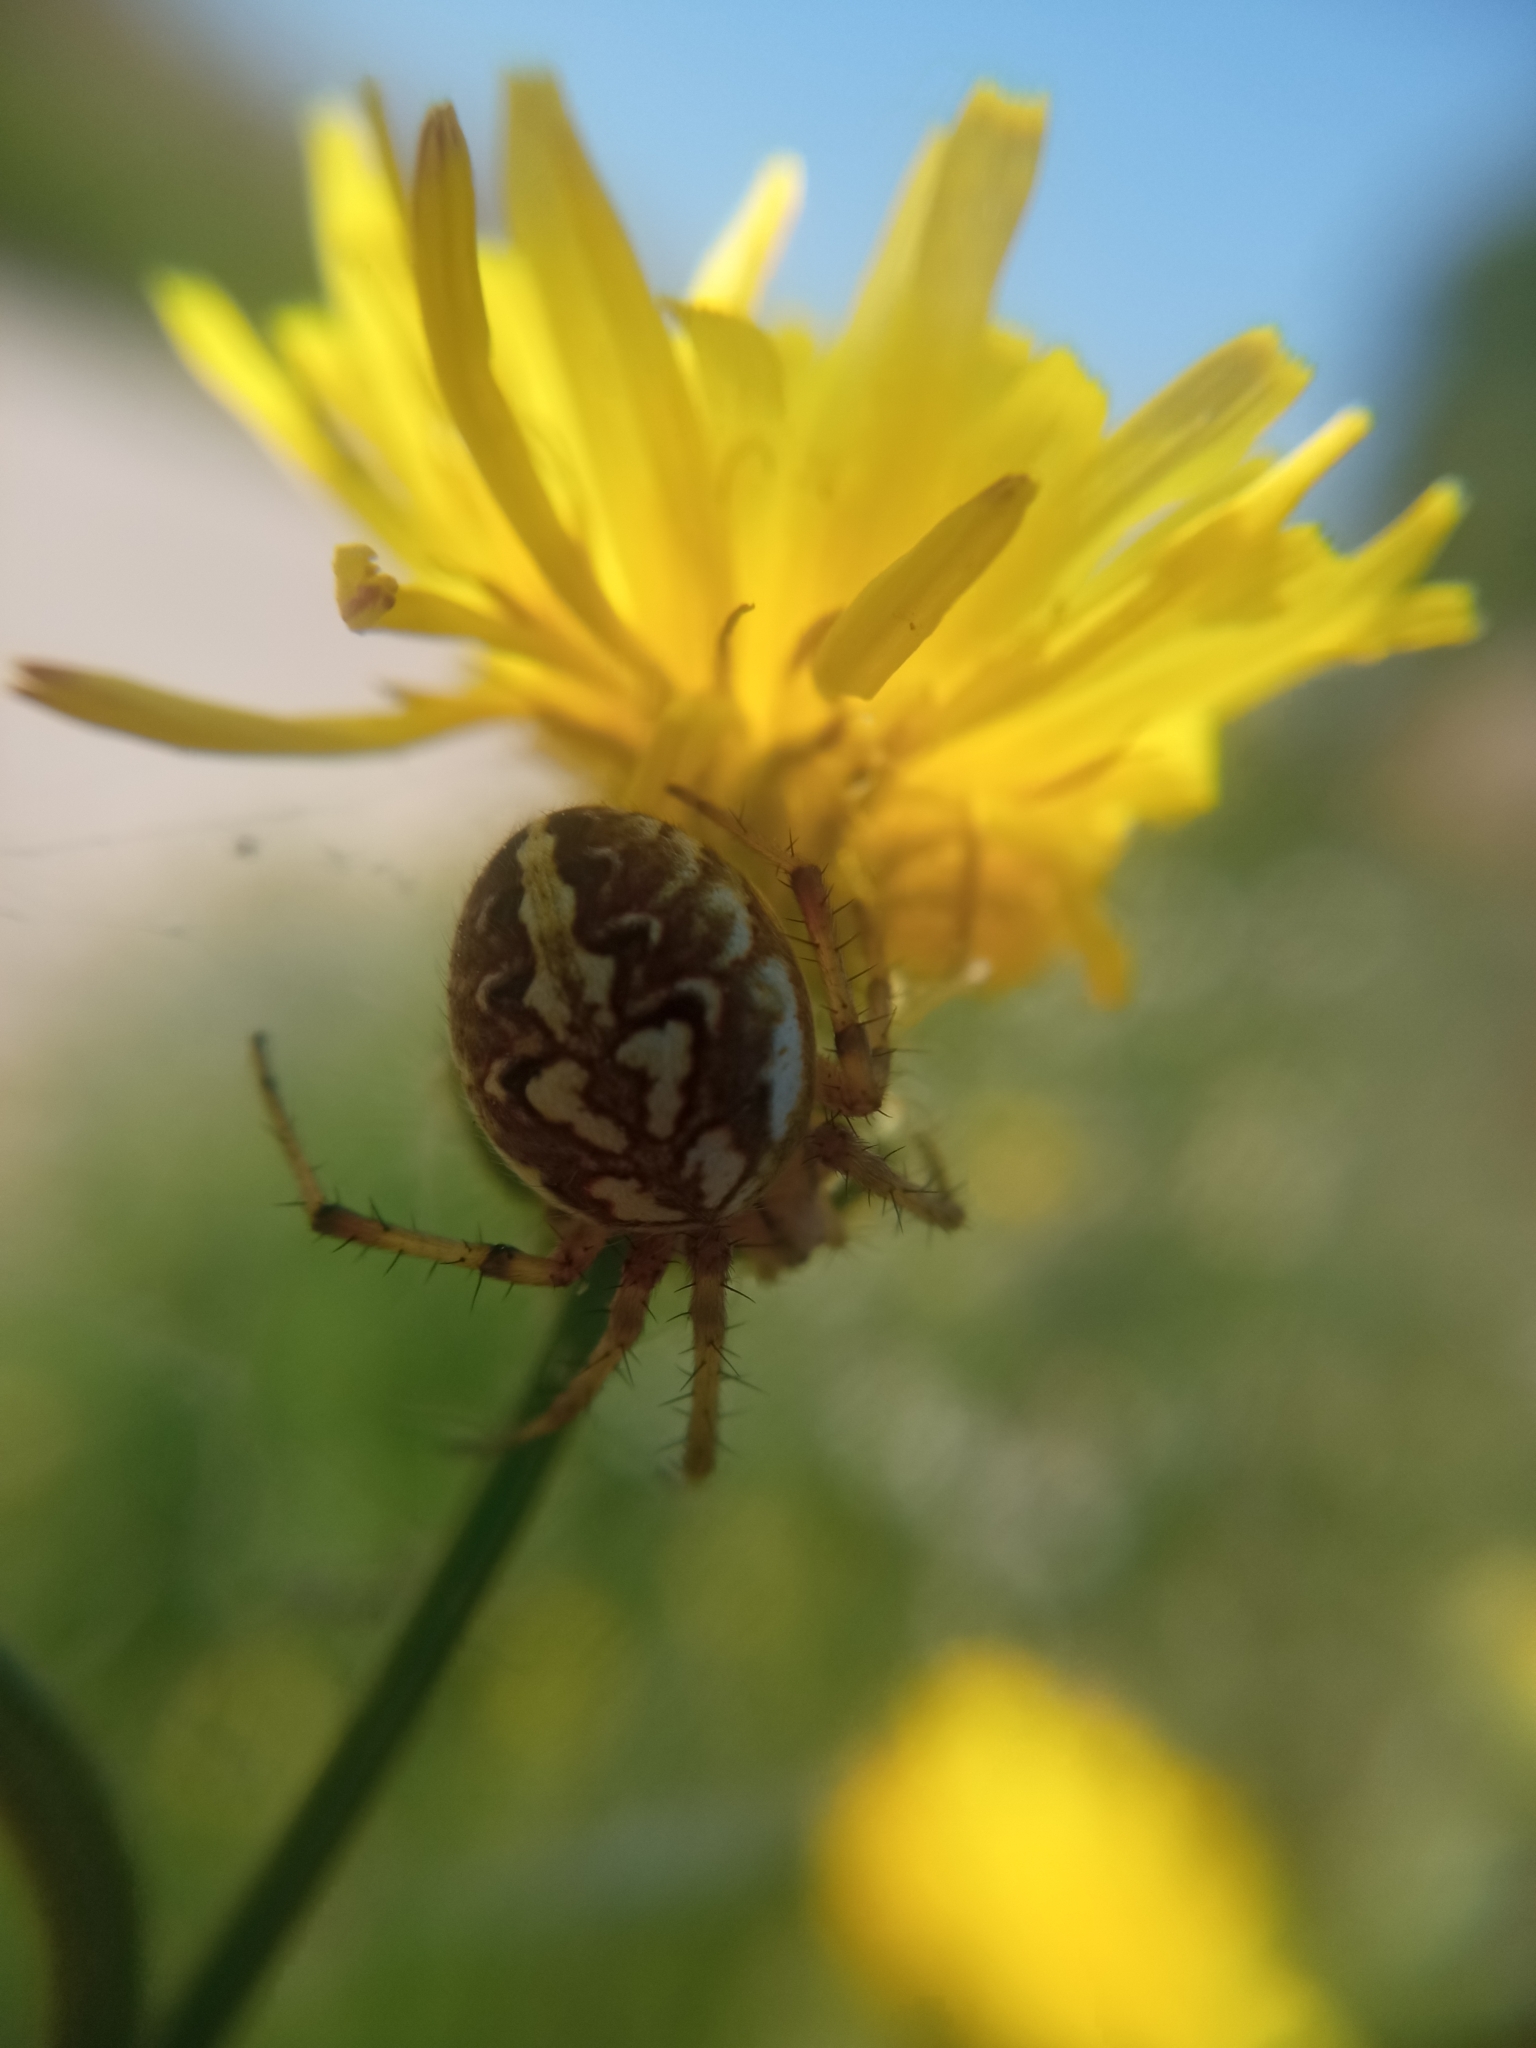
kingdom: Animalia
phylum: Arthropoda
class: Arachnida
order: Araneae
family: Araneidae
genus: Neoscona
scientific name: Neoscona adianta
